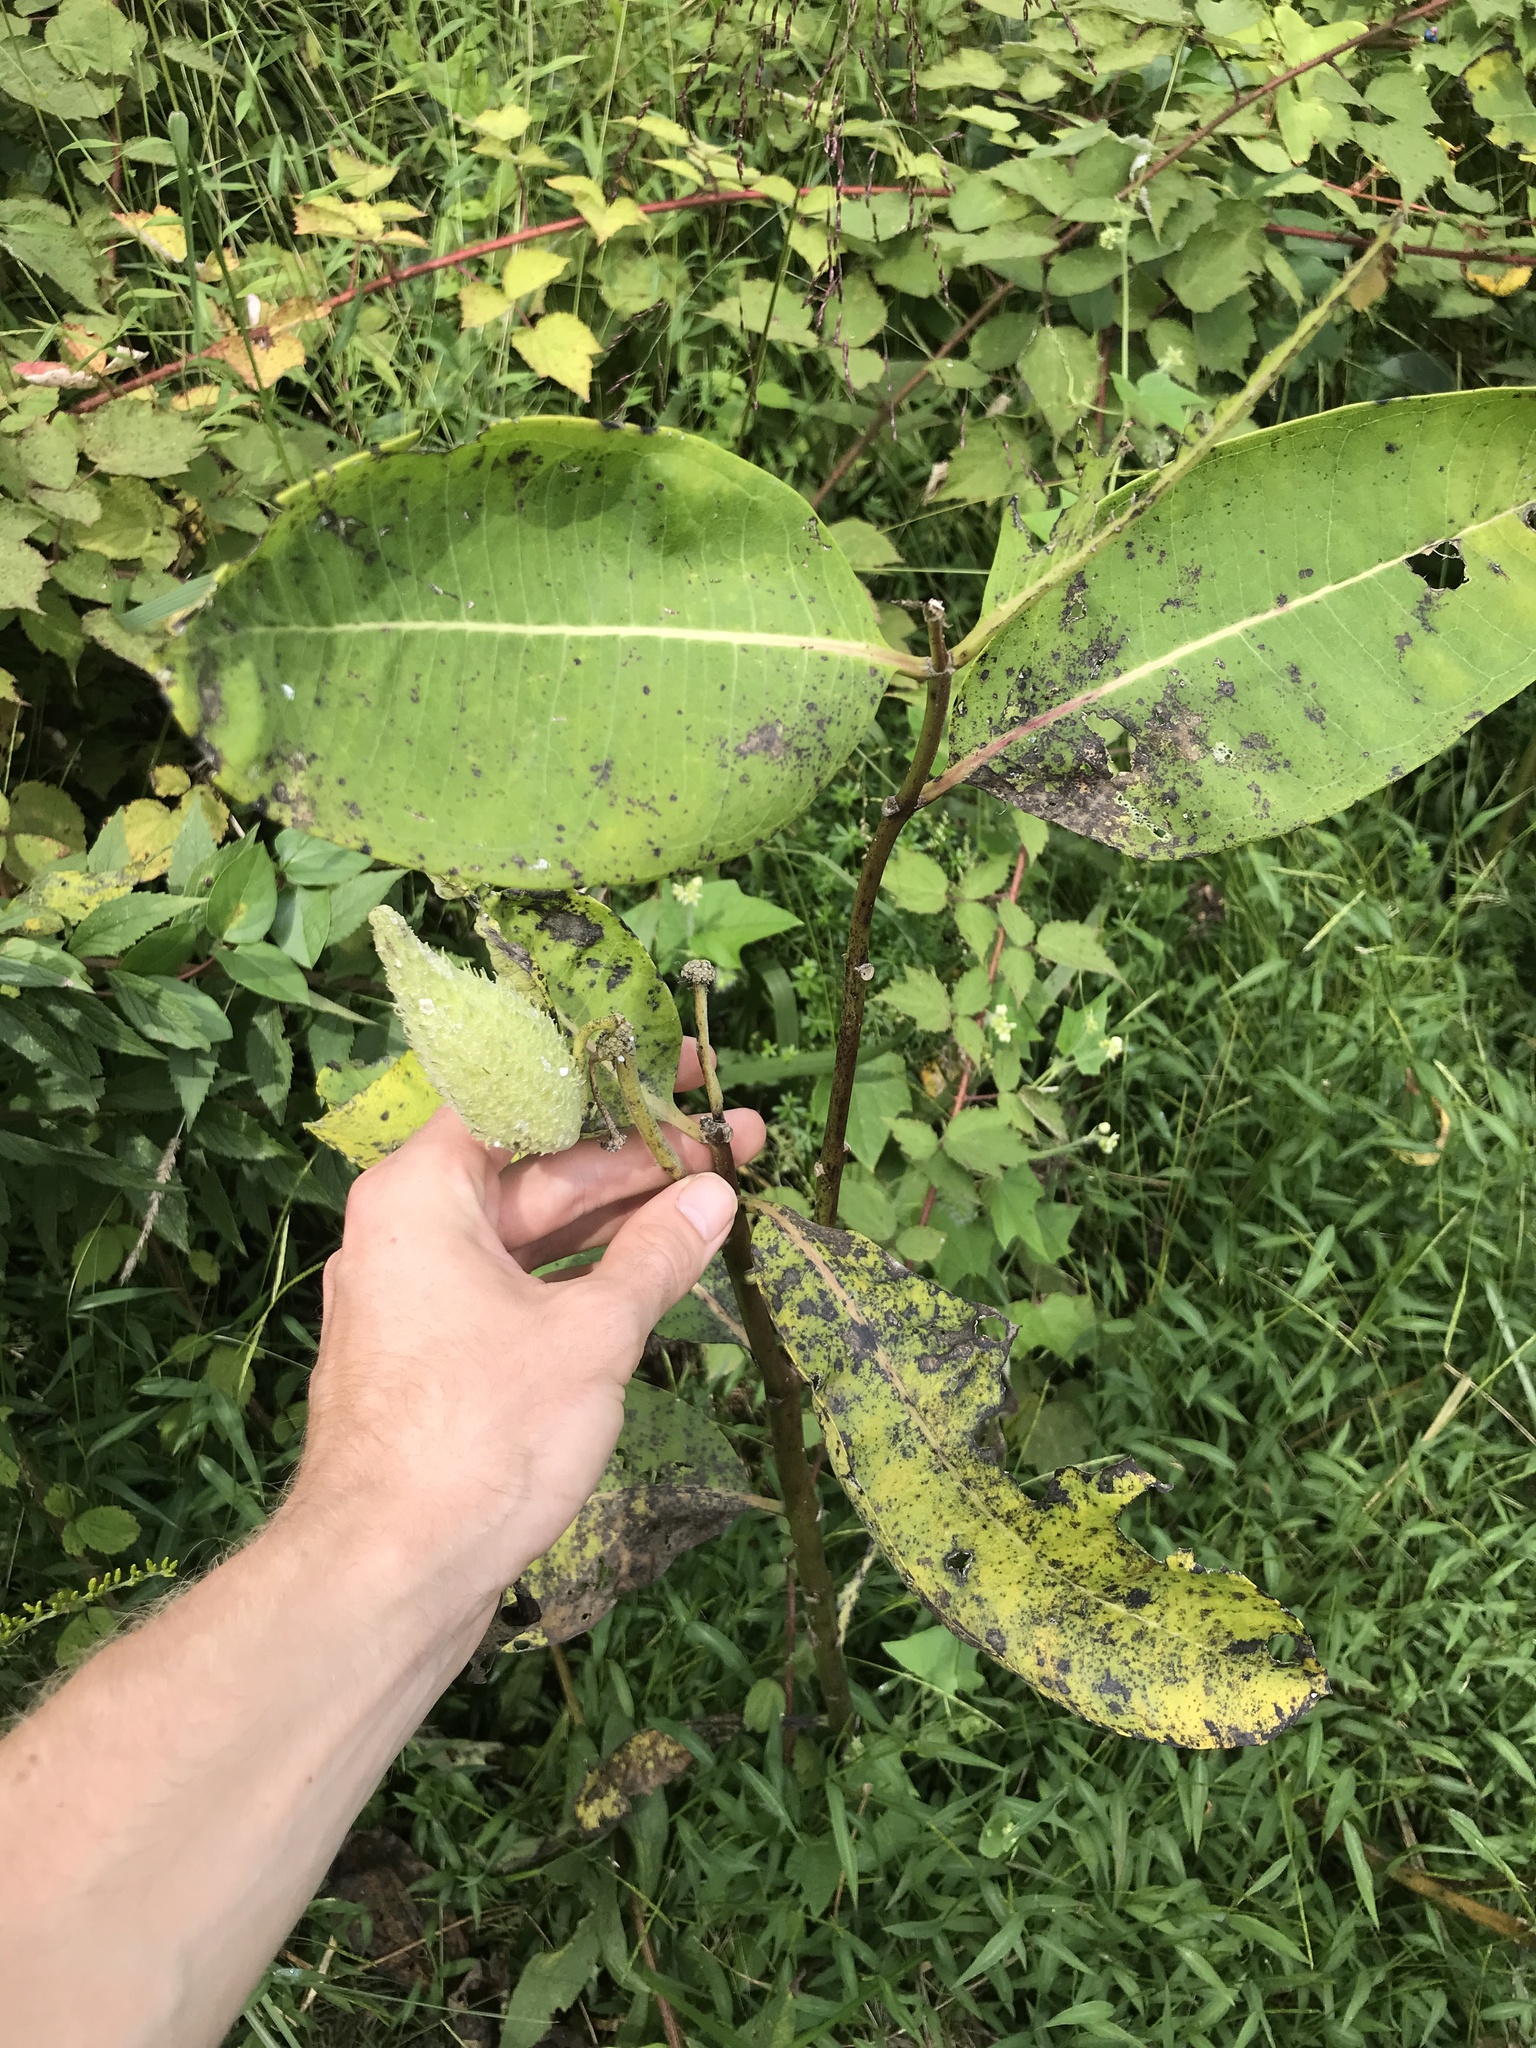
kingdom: Plantae
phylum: Tracheophyta
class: Magnoliopsida
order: Gentianales
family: Apocynaceae
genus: Asclepias
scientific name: Asclepias syriaca
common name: Common milkweed
